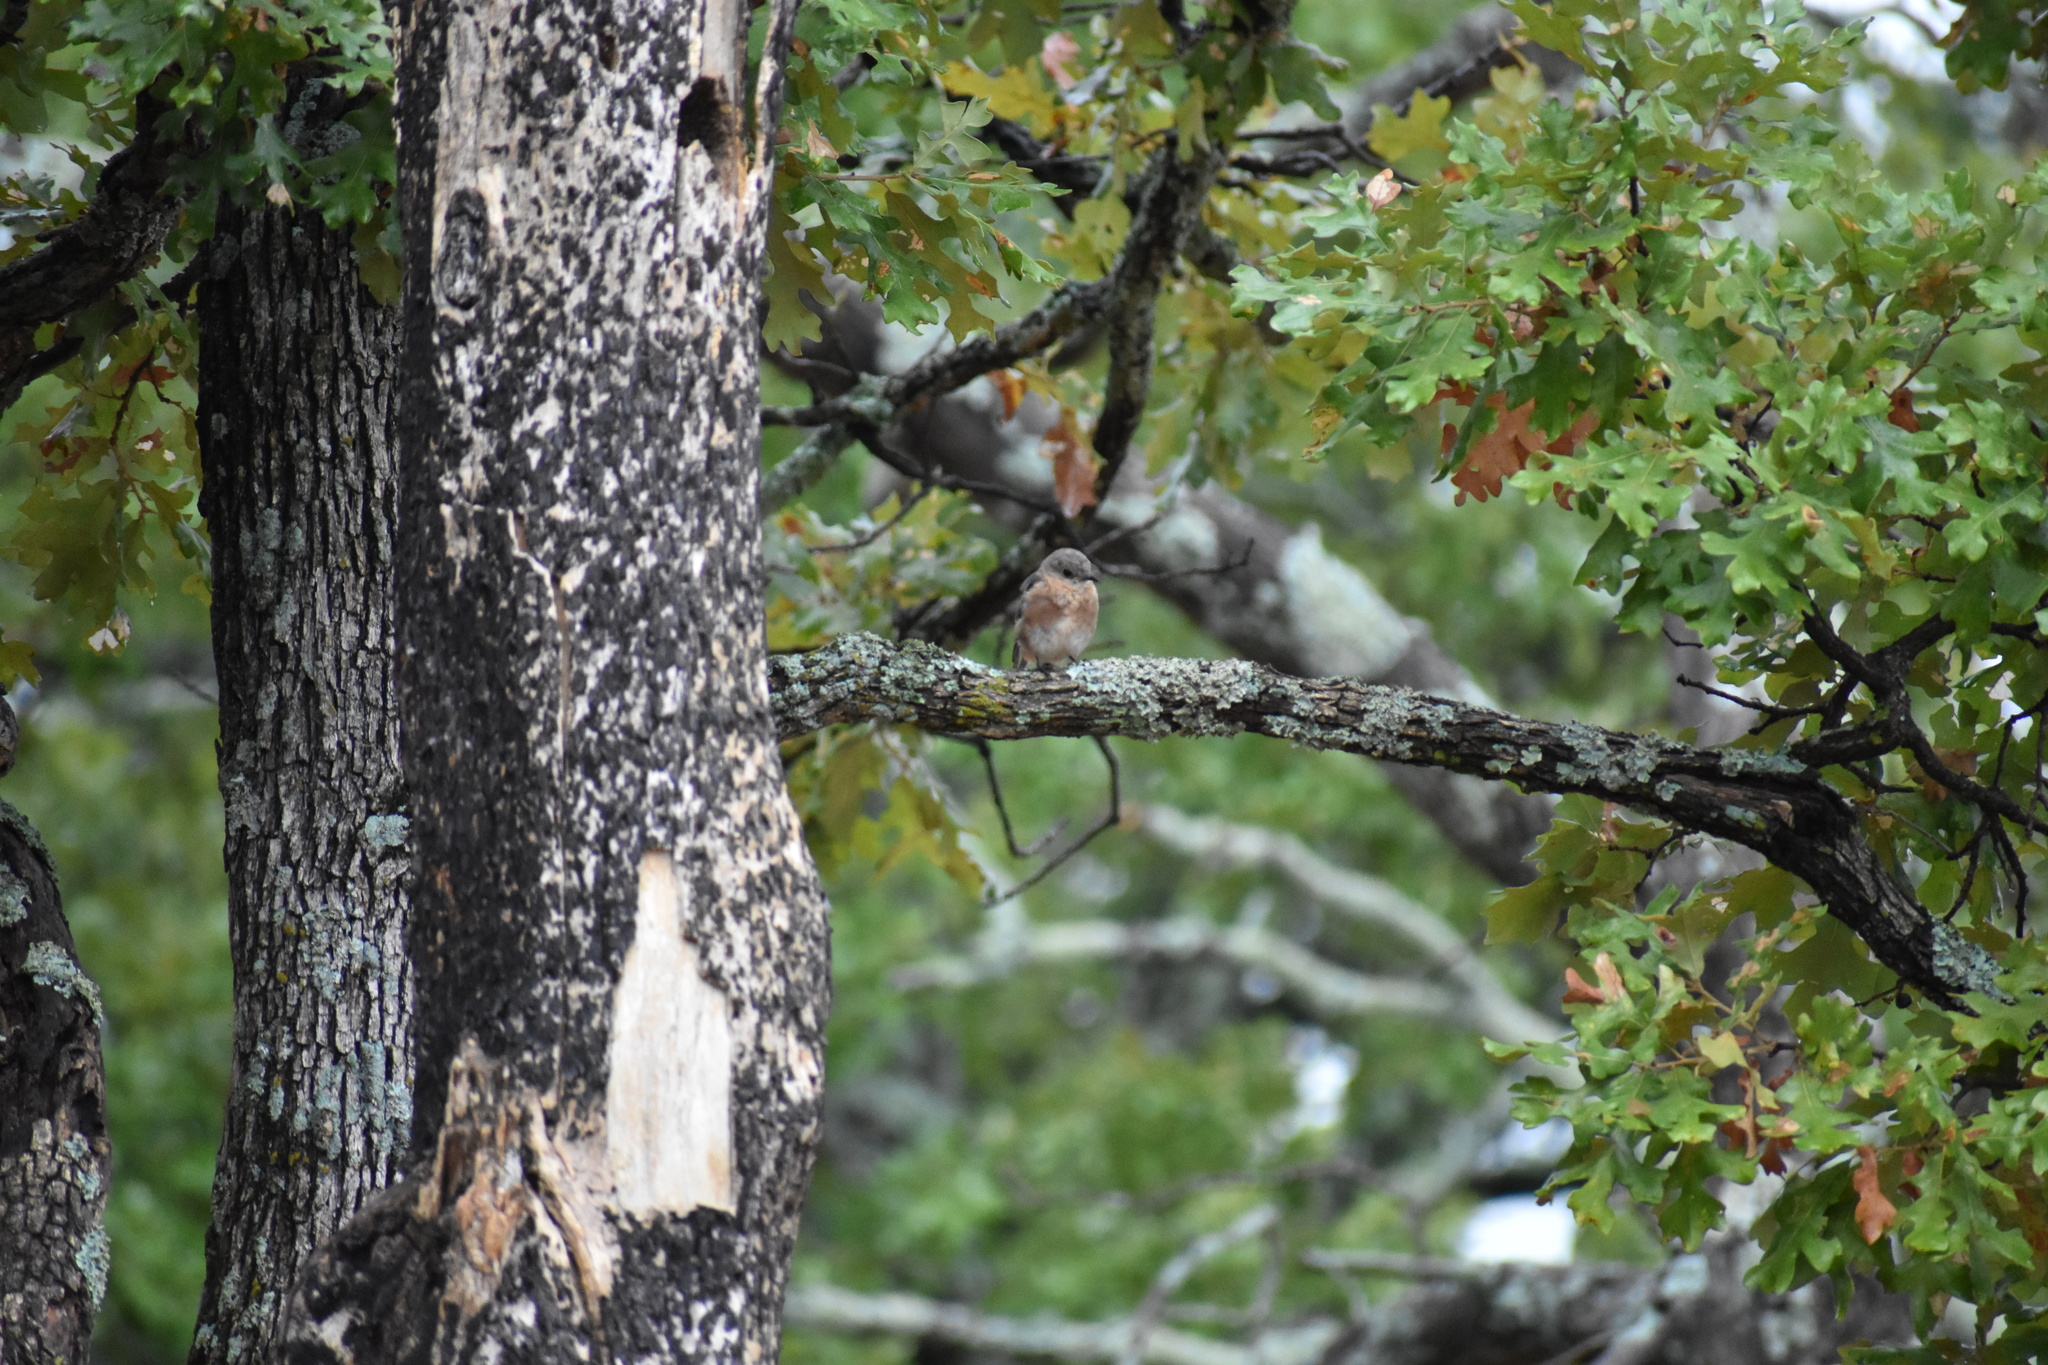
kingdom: Animalia
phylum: Chordata
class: Aves
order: Passeriformes
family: Turdidae
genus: Sialia
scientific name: Sialia sialis
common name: Eastern bluebird
